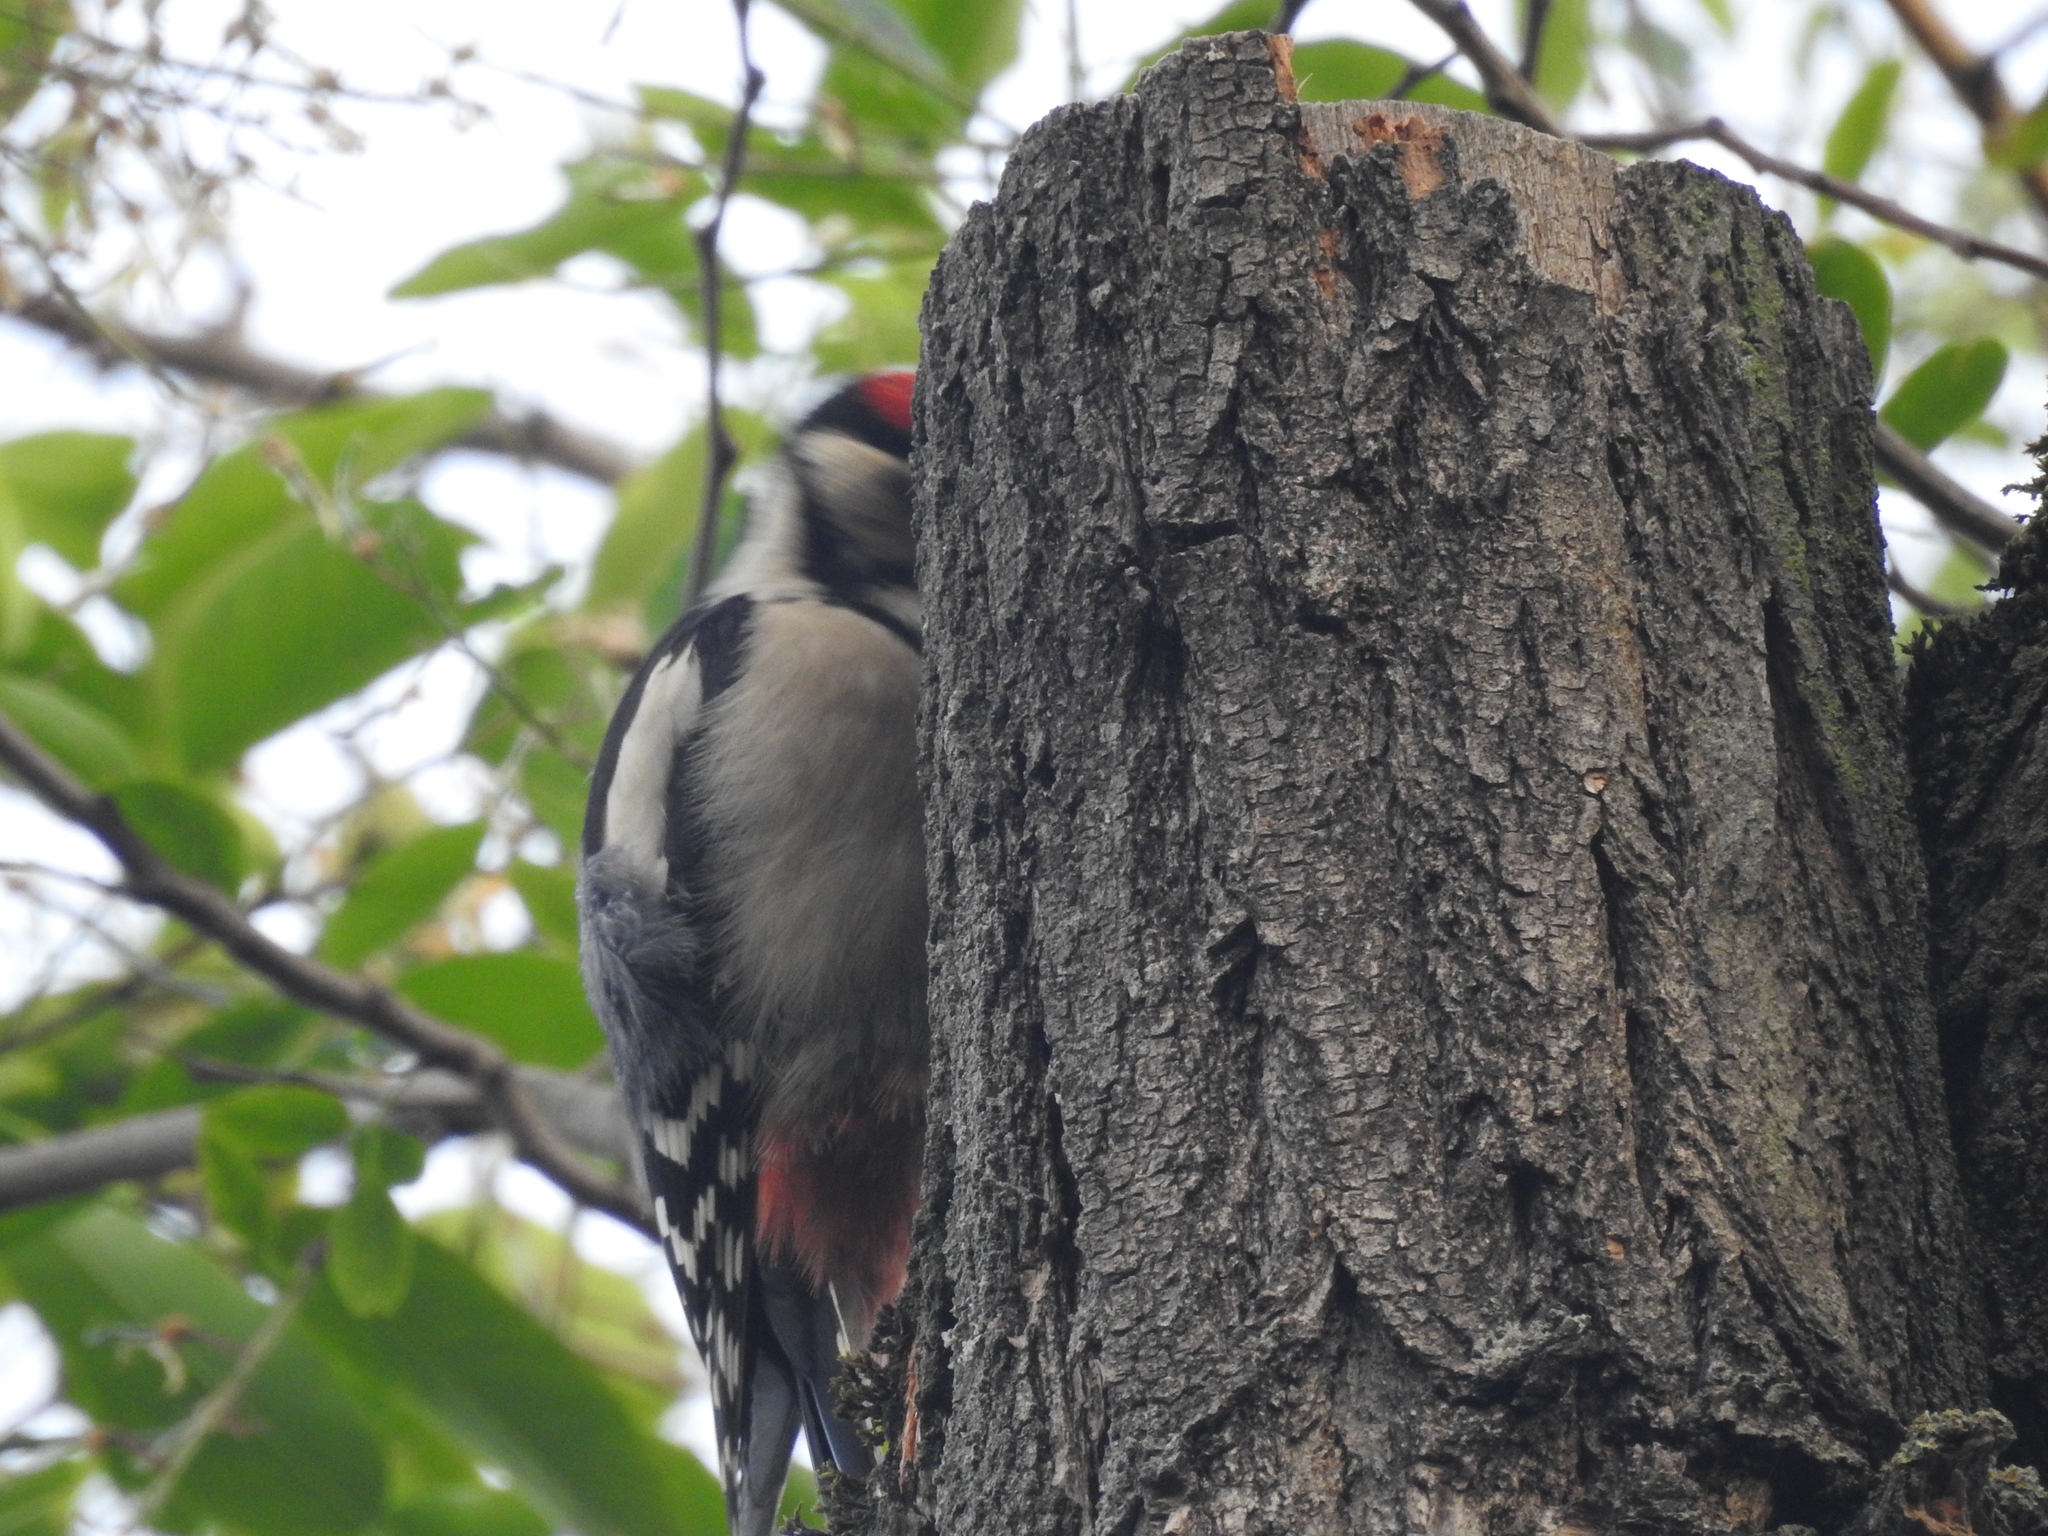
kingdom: Animalia
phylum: Chordata
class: Aves
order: Piciformes
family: Picidae
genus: Dendrocopos
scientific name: Dendrocopos major
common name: Great spotted woodpecker
